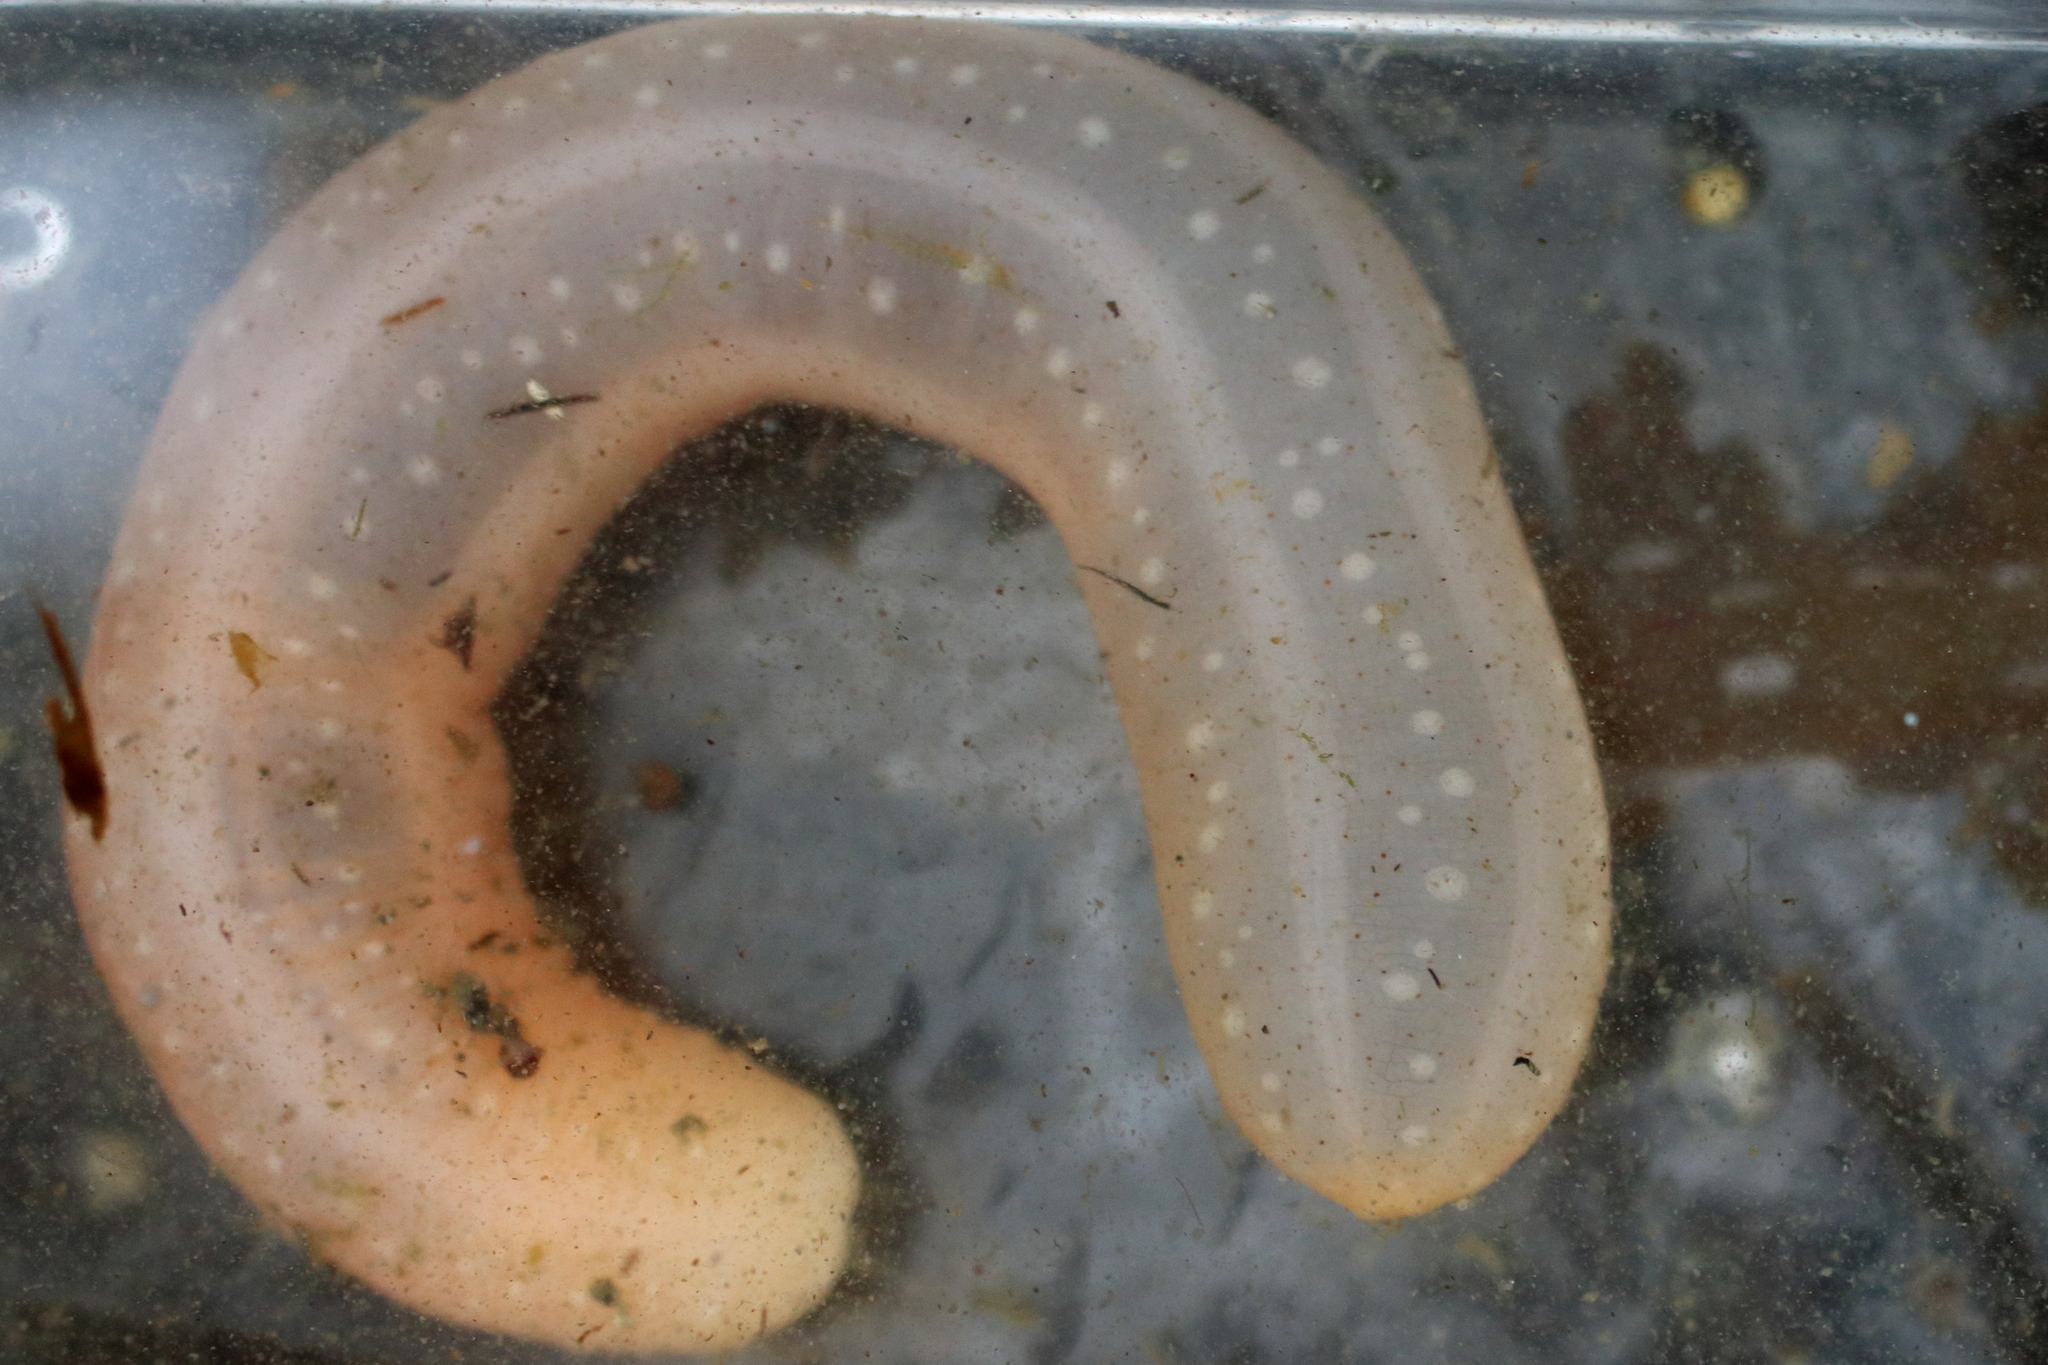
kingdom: Animalia
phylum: Echinodermata
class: Holothuroidea
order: Apodida
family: Chiridotidae
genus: Chiridota
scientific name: Chiridota discolor
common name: Jellybean footless sea cucumber
